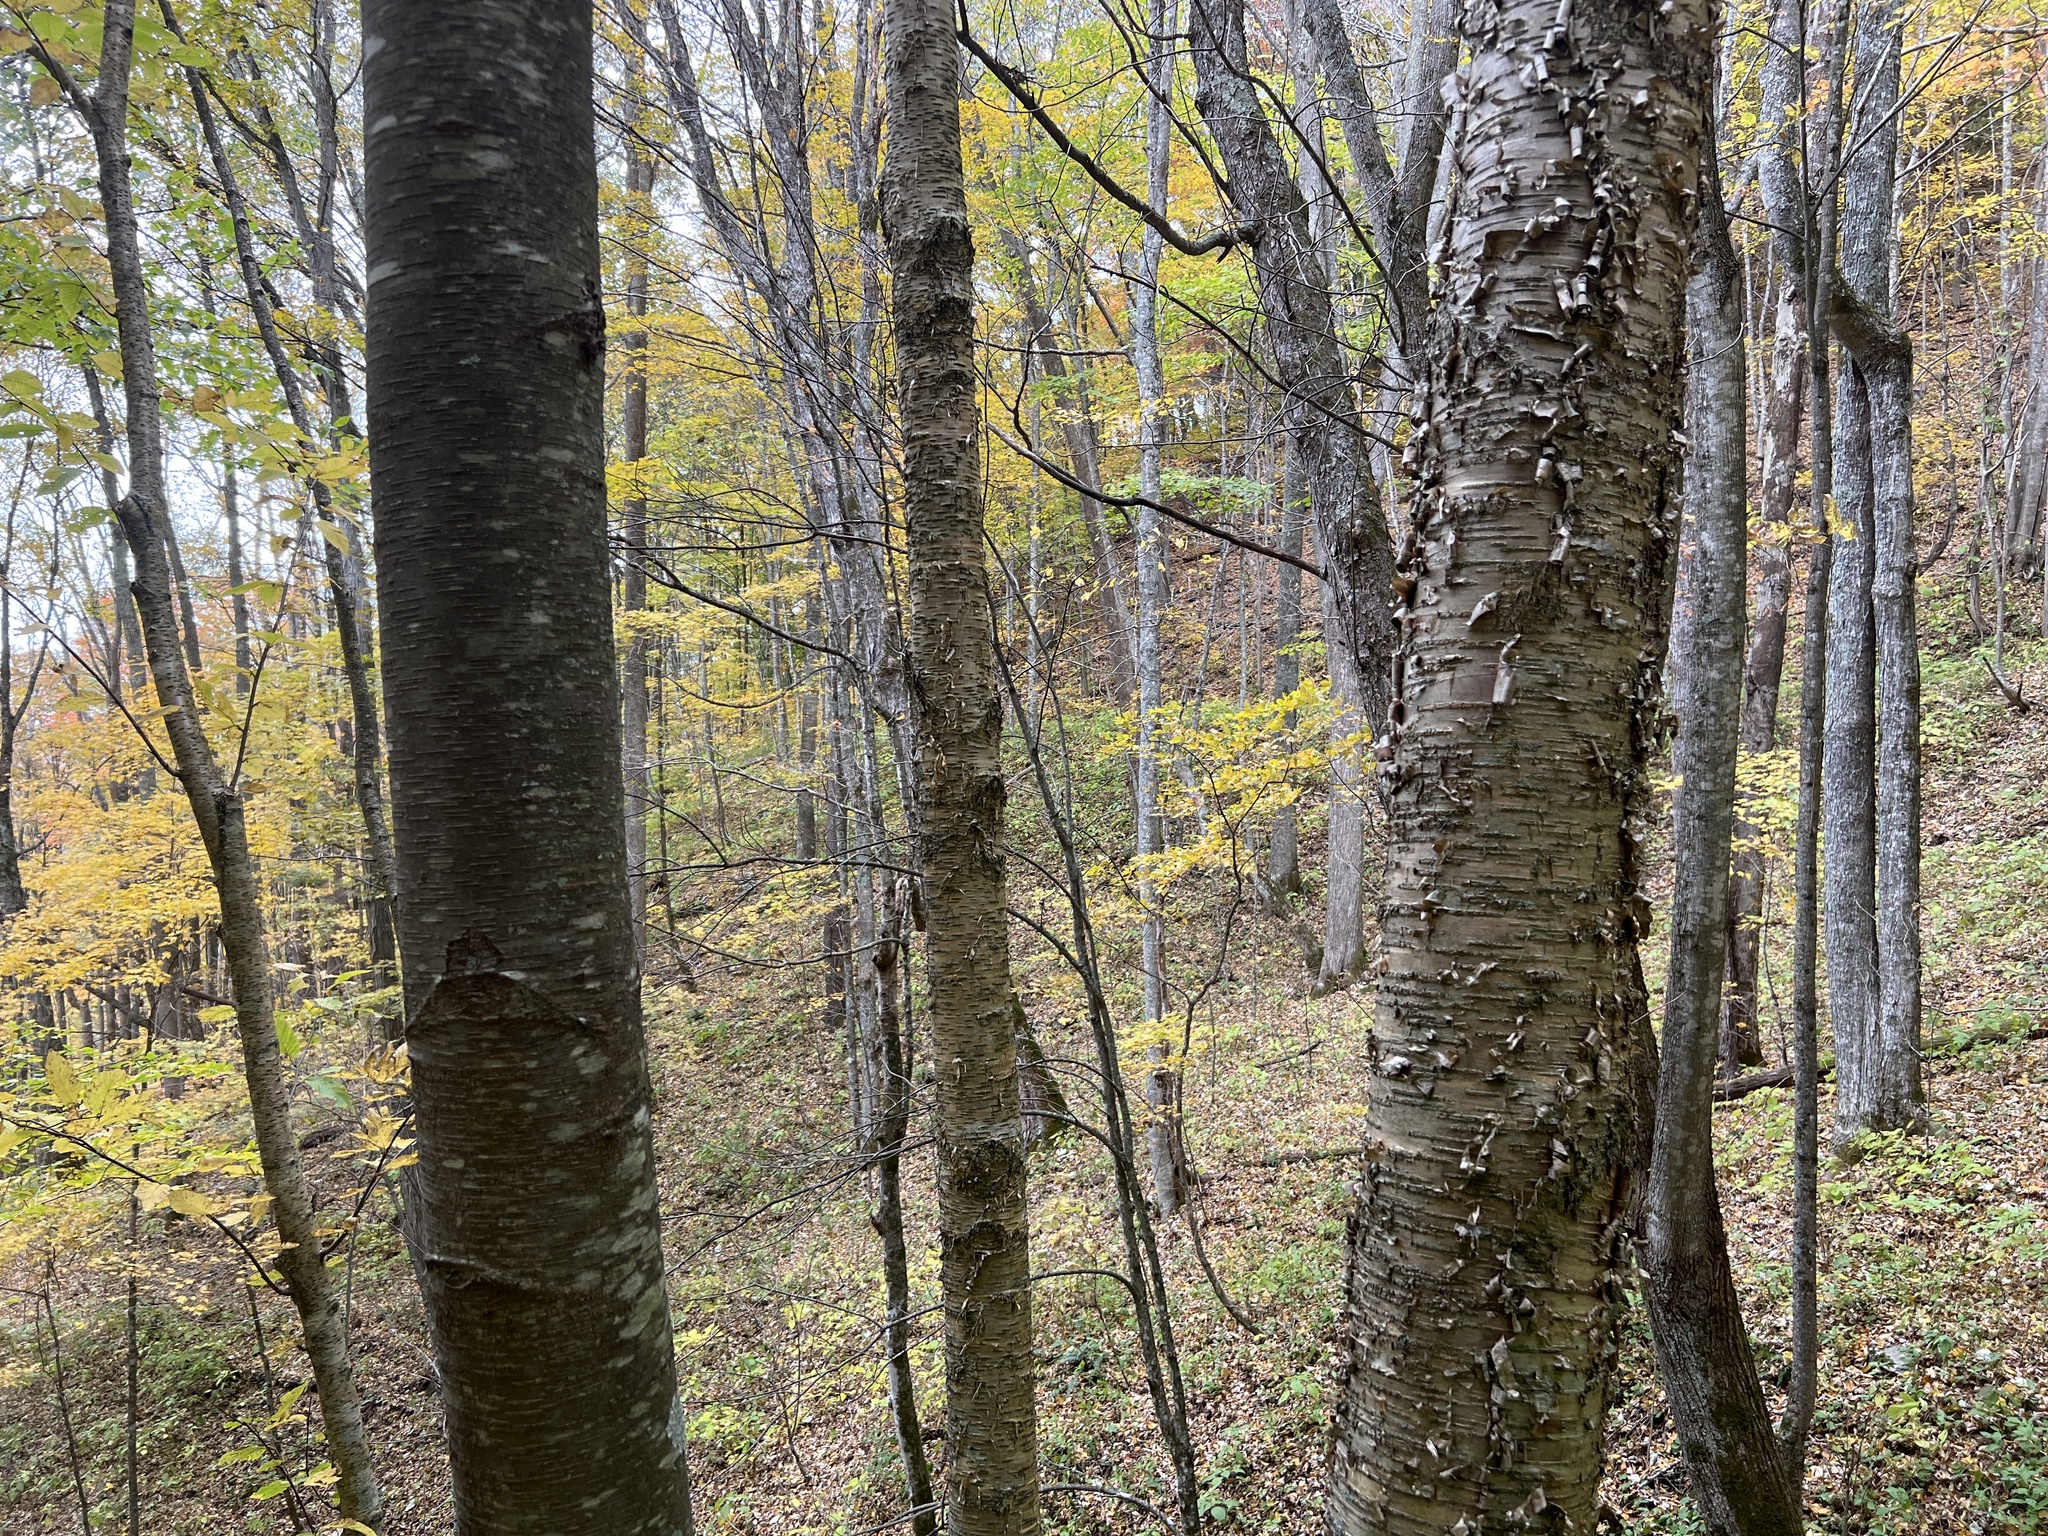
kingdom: Plantae
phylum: Tracheophyta
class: Magnoliopsida
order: Fagales
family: Betulaceae
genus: Betula
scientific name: Betula lenta
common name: Black birch
